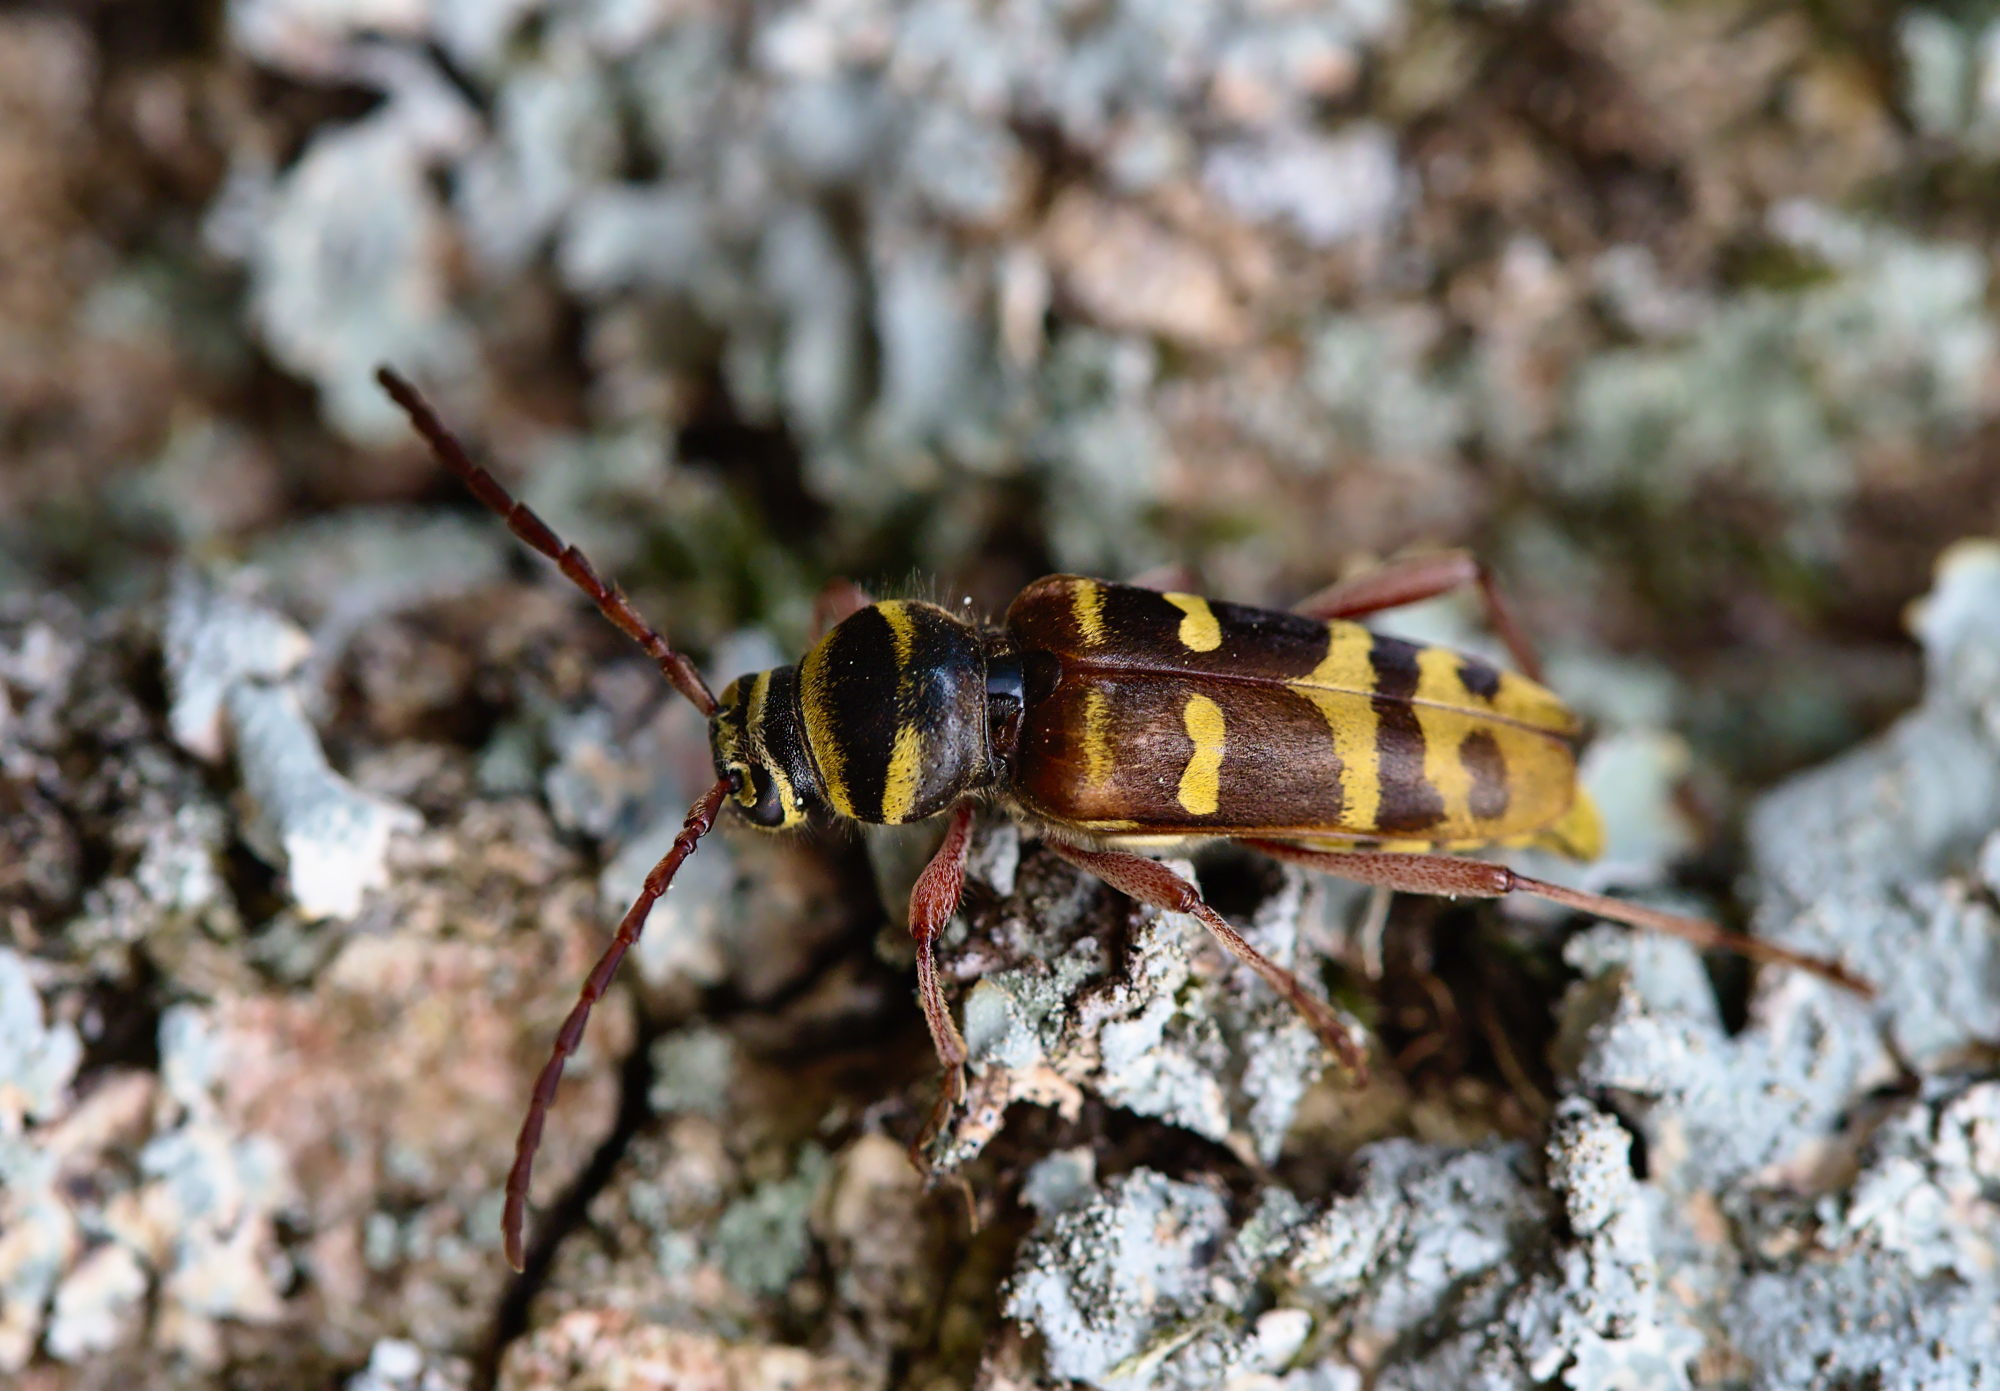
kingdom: Animalia
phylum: Arthropoda
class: Insecta
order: Coleoptera
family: Cerambycidae
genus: Plagionotus
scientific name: Plagionotus detritus
